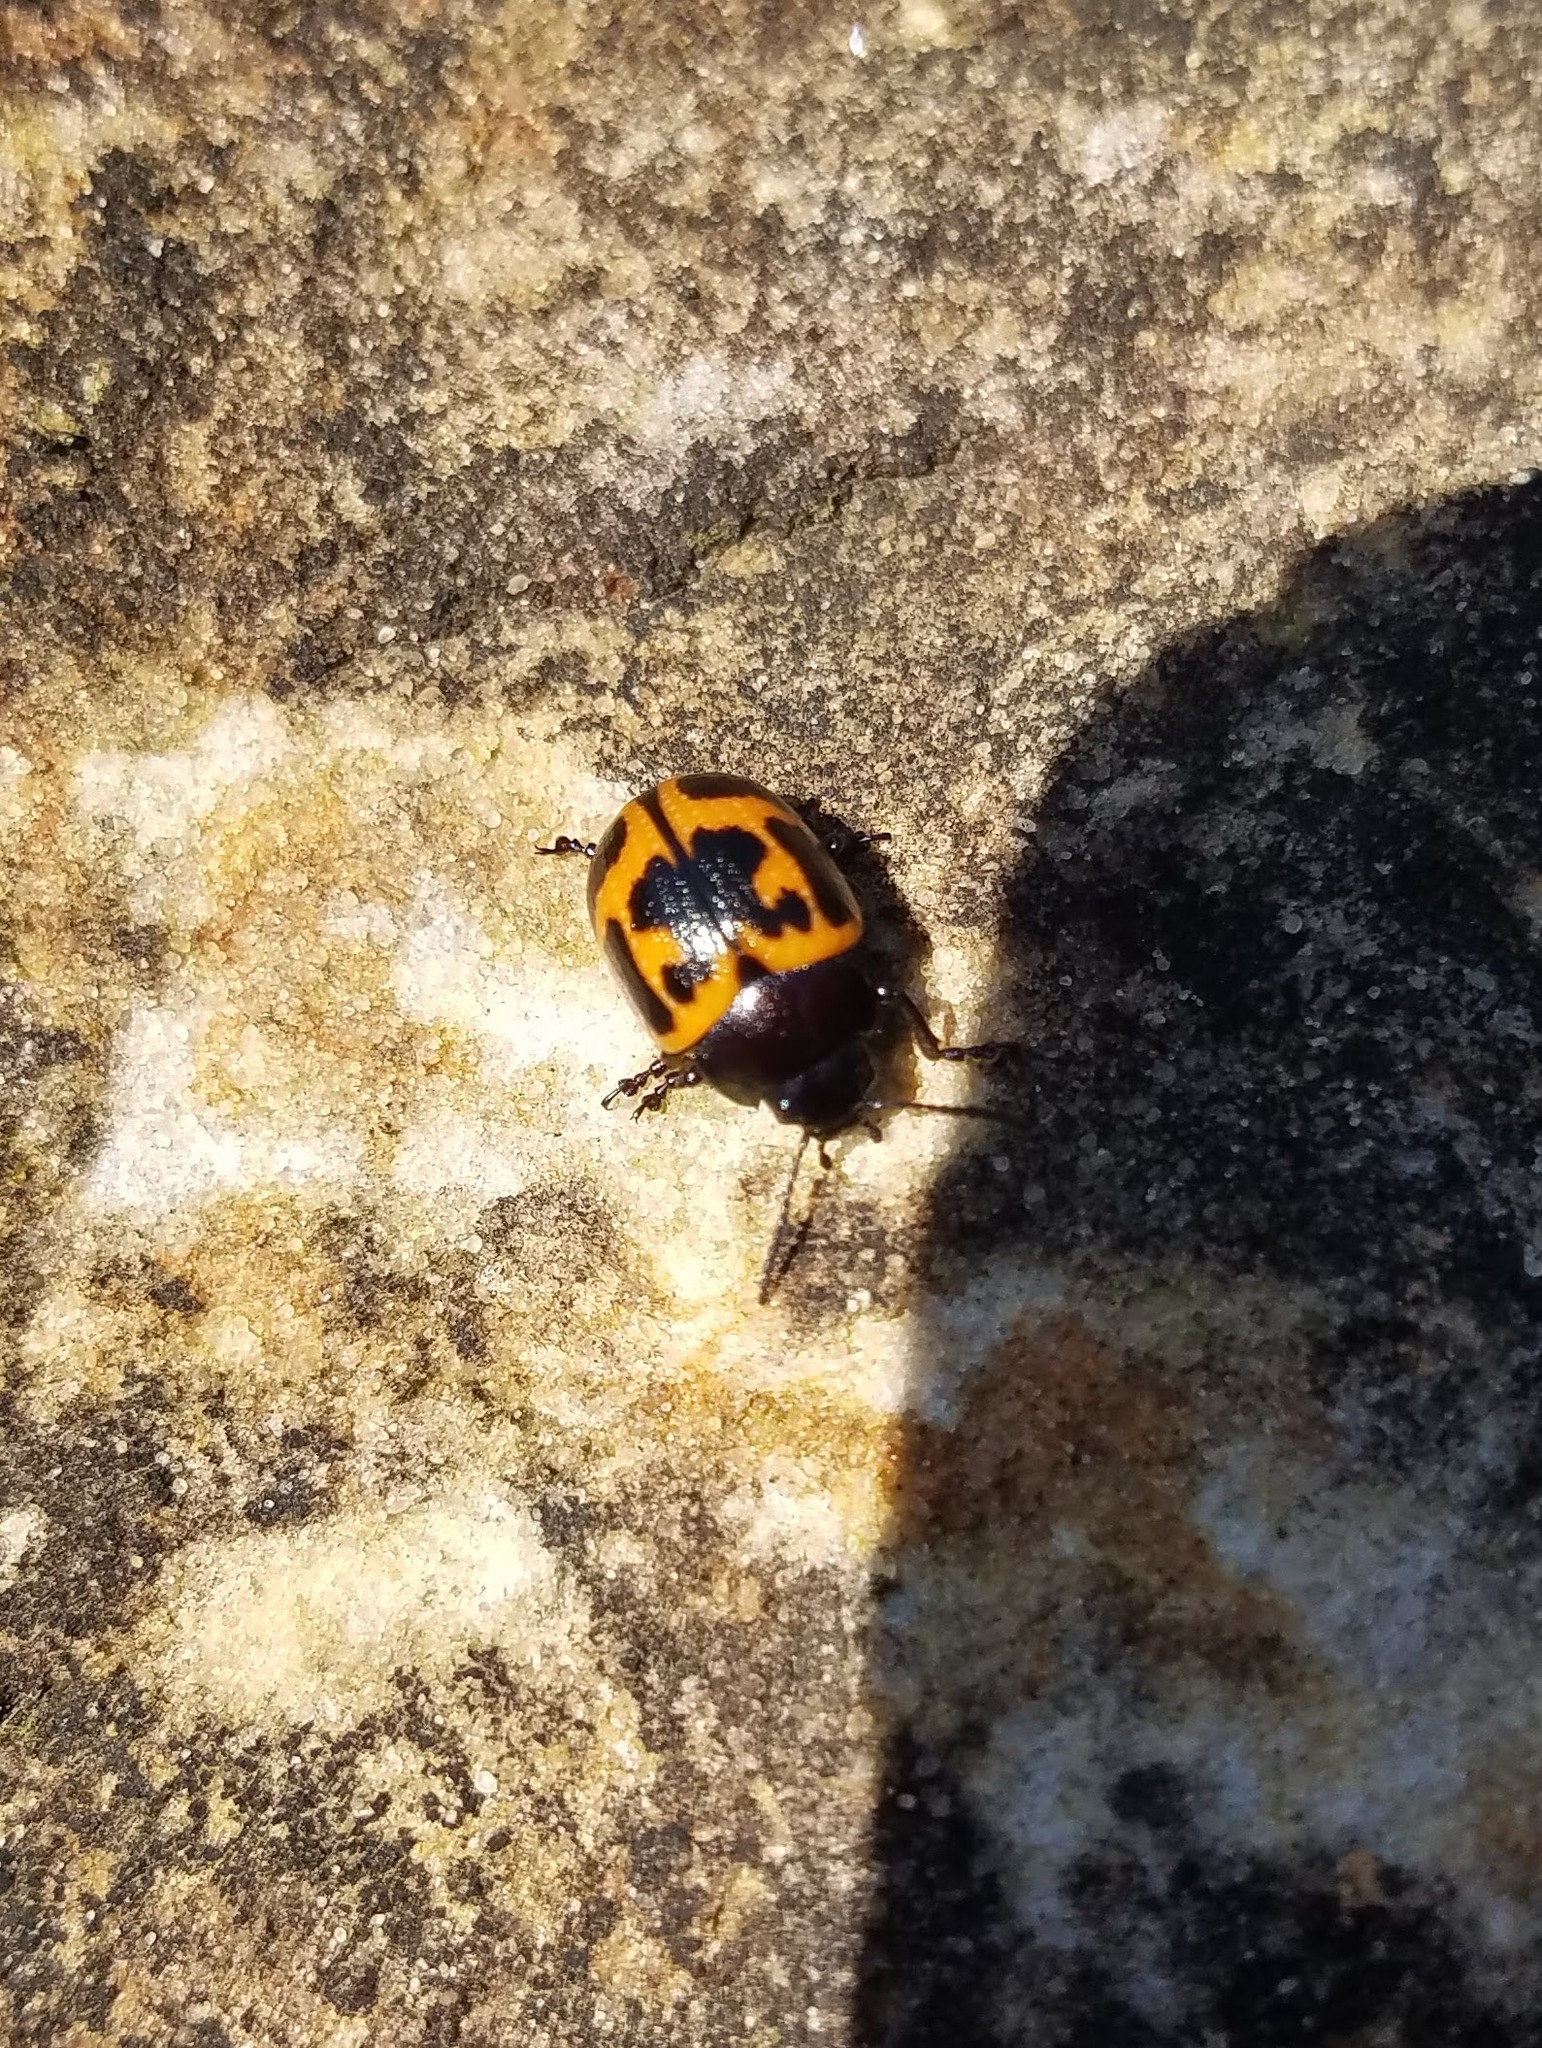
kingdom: Animalia
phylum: Arthropoda
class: Insecta
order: Coleoptera
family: Chrysomelidae
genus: Labidomera
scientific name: Labidomera clivicollis
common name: Swamp milkweed leaf beetle
